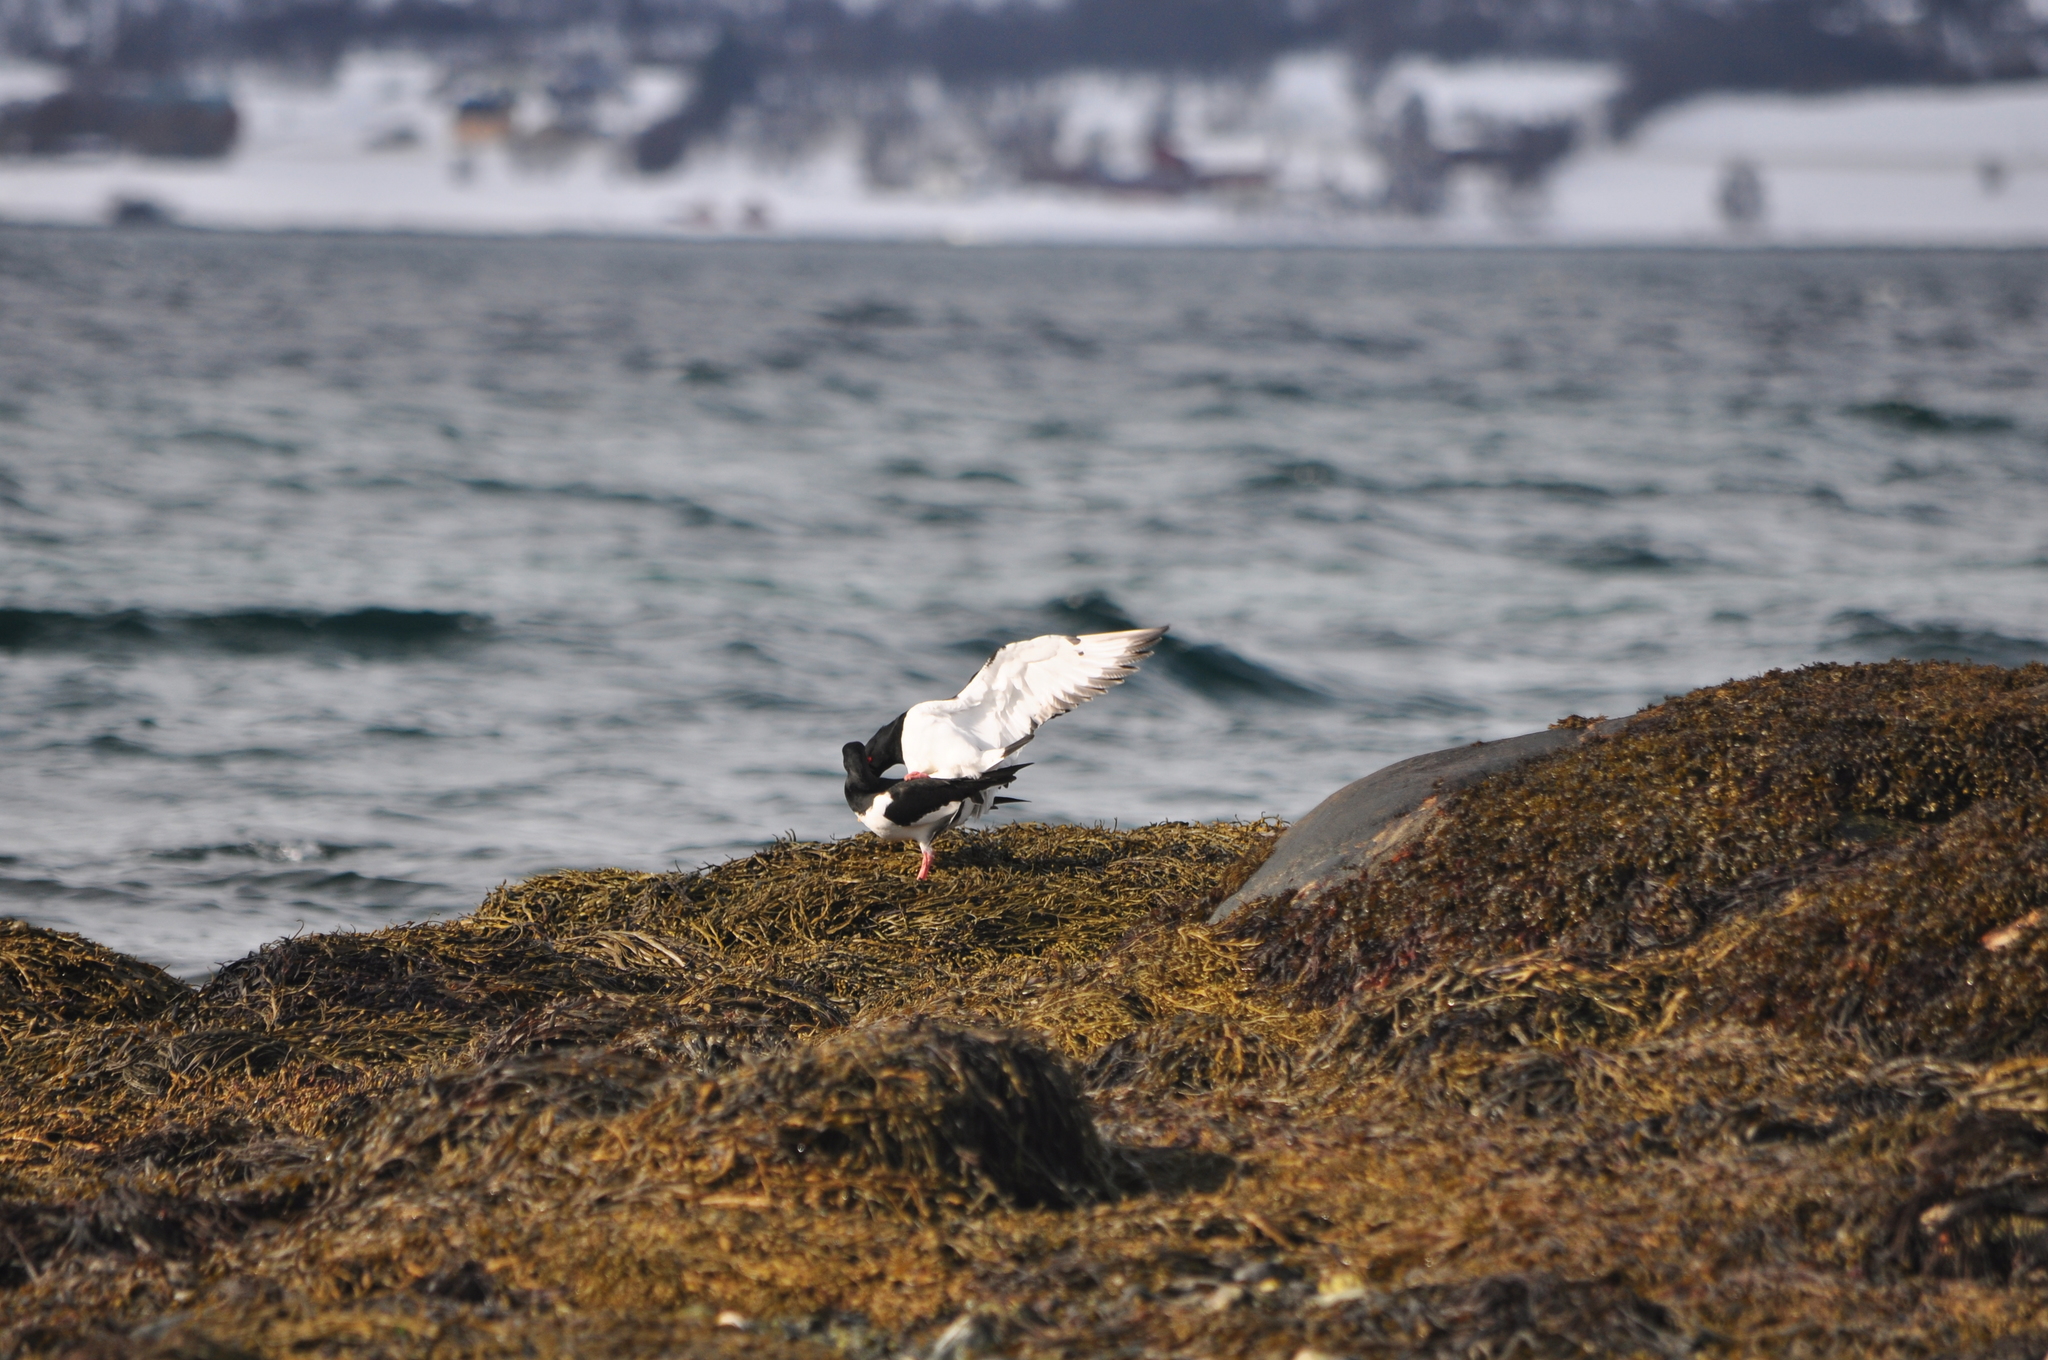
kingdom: Animalia
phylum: Chordata
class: Aves
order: Charadriiformes
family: Haematopodidae
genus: Haematopus
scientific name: Haematopus ostralegus
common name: Eurasian oystercatcher
